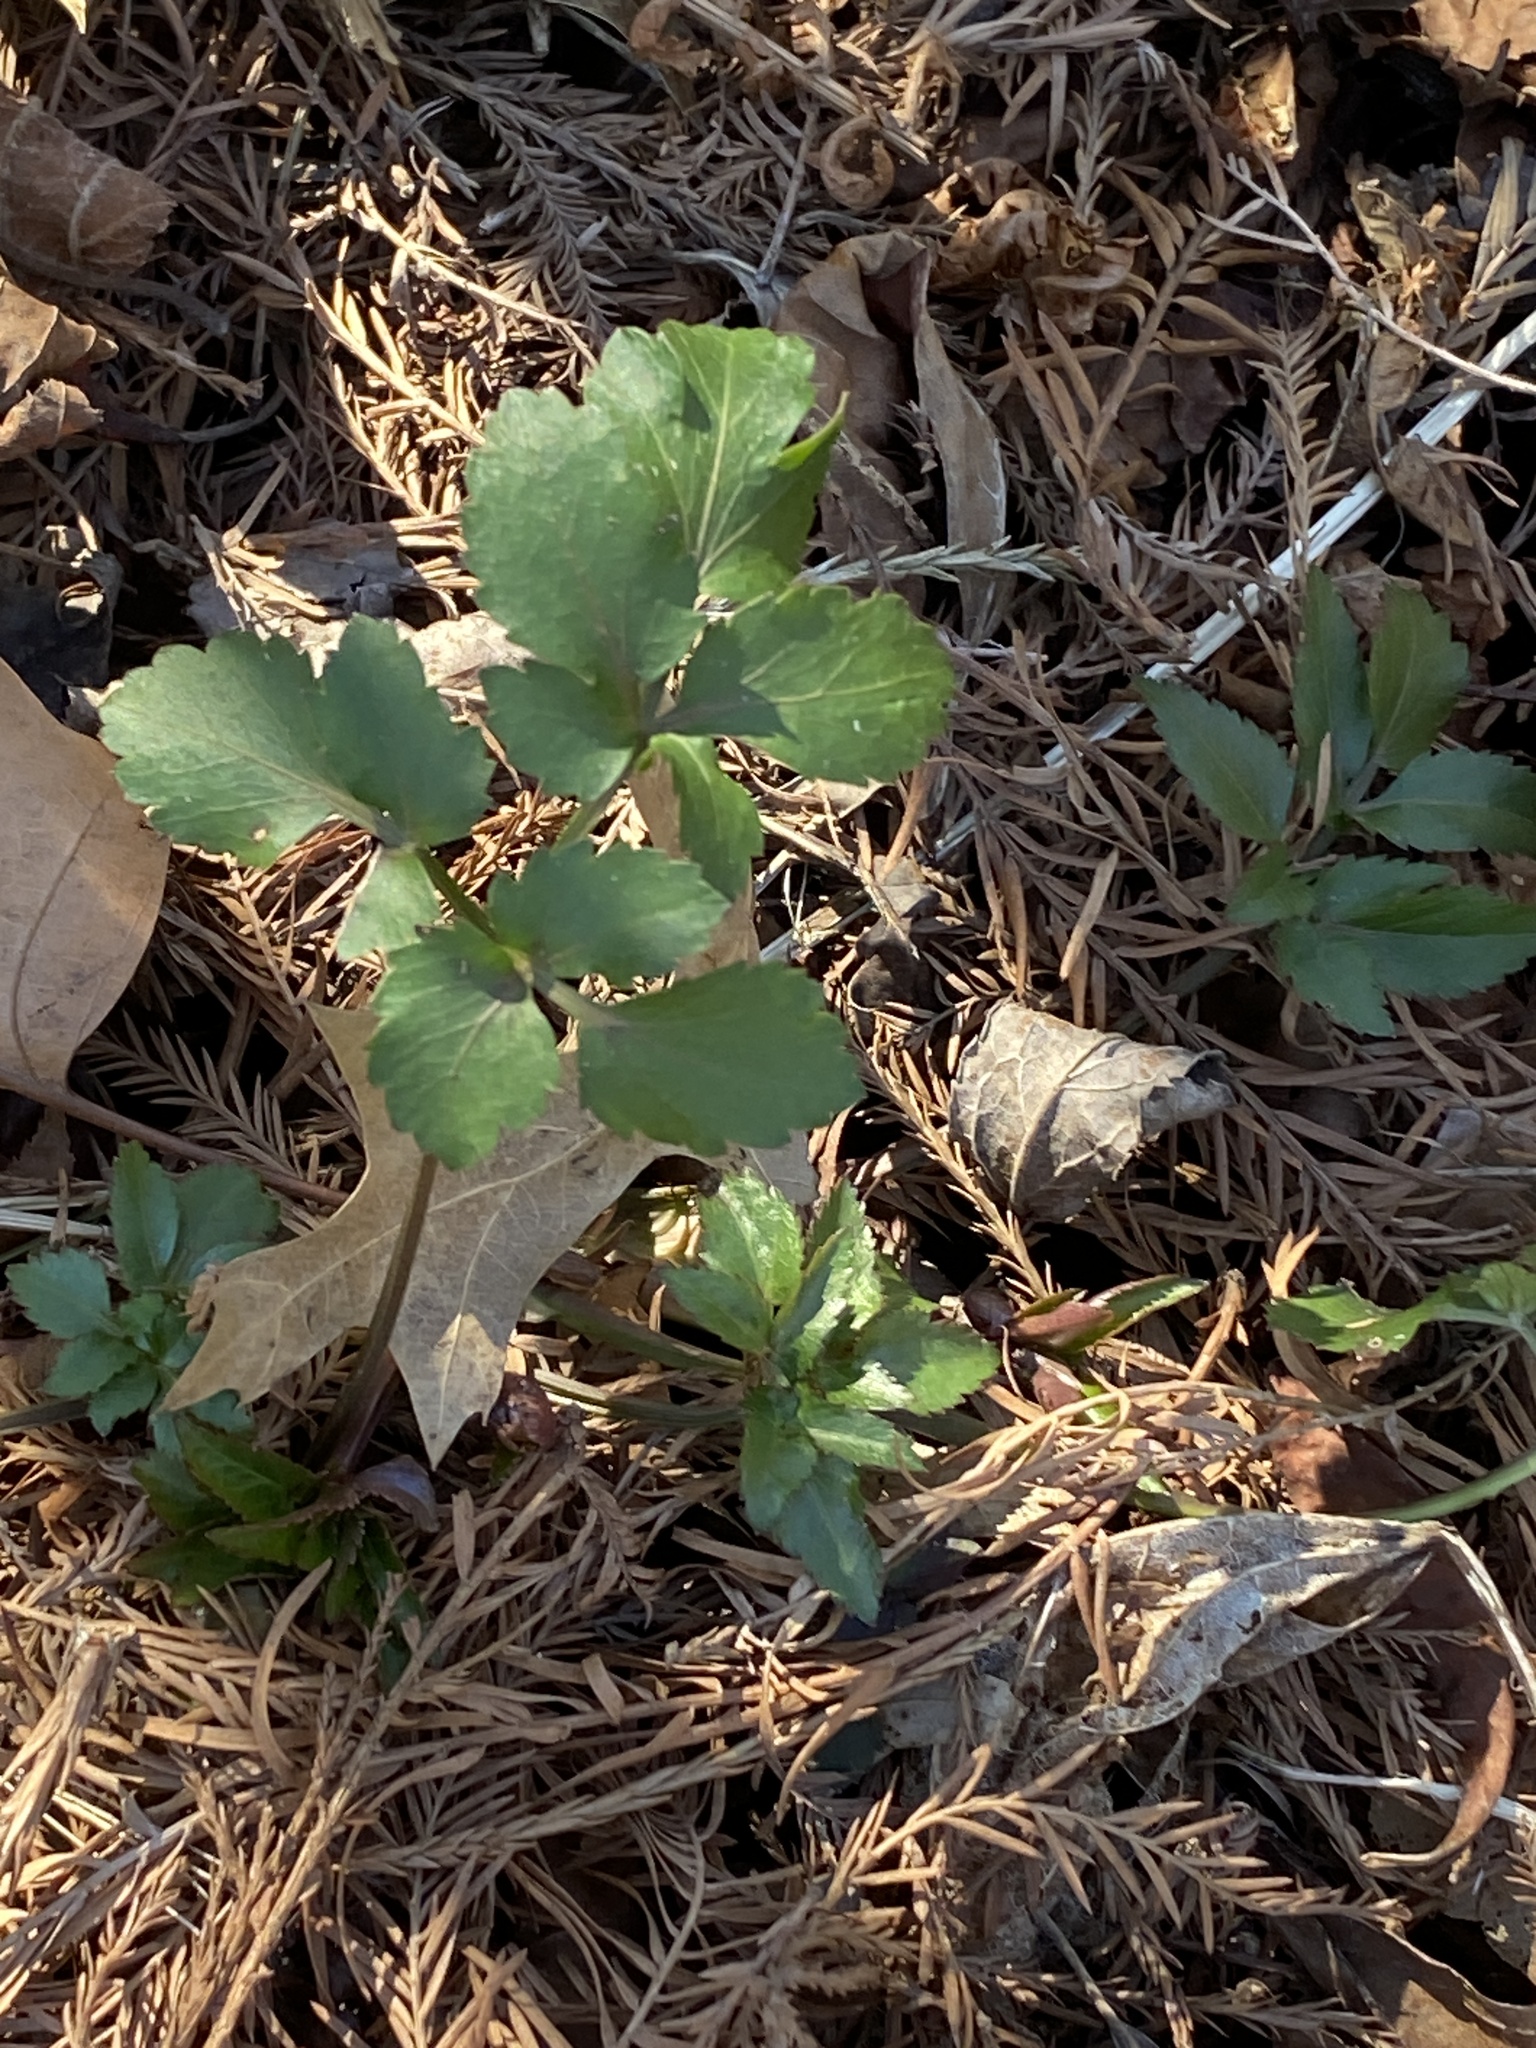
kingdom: Plantae
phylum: Tracheophyta
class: Magnoliopsida
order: Apiales
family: Apiaceae
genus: Zizia
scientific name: Zizia aurea
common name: Golden alexanders
